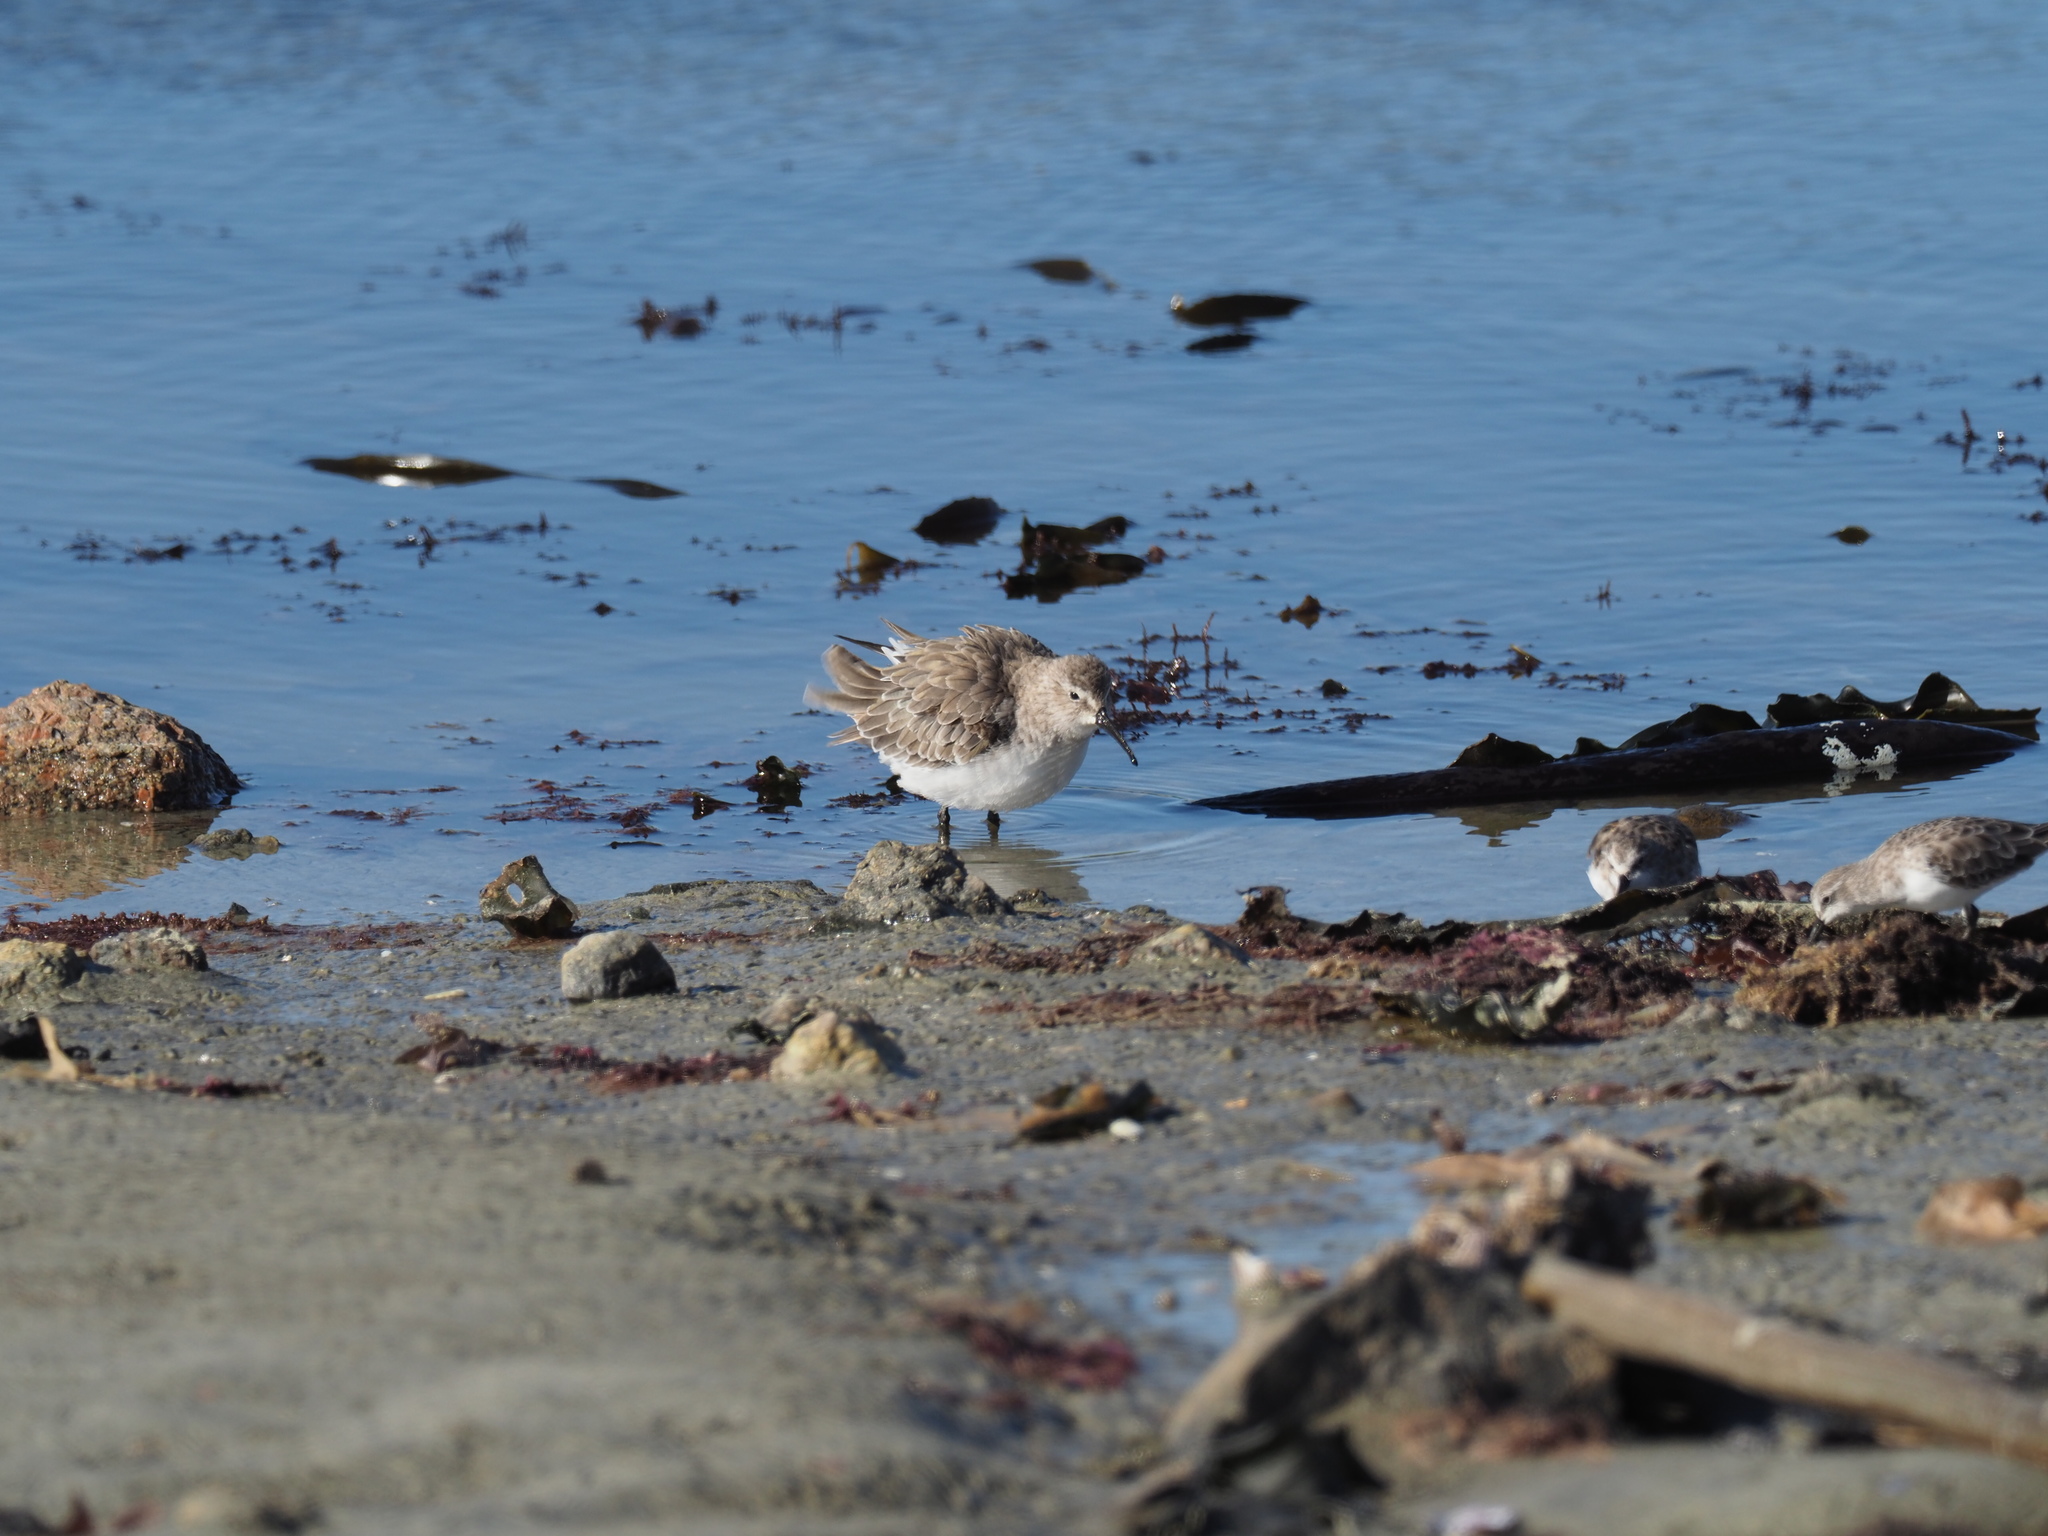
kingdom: Animalia
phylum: Chordata
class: Aves
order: Charadriiformes
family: Scolopacidae
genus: Calidris
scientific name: Calidris minuta
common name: Little stint
